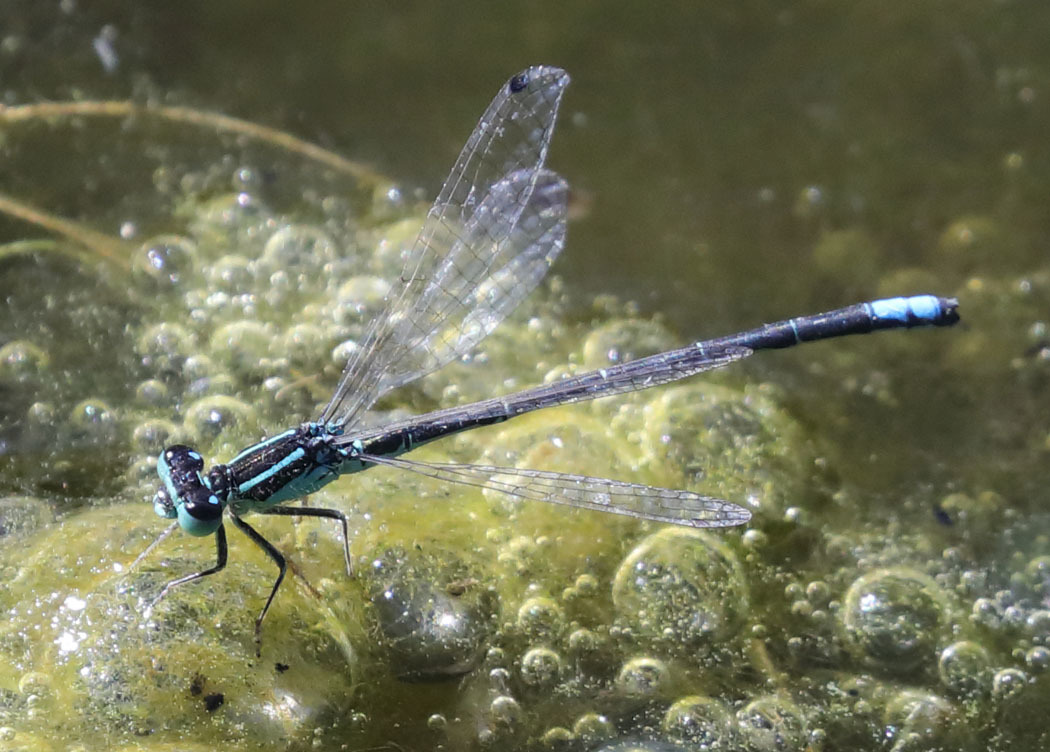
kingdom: Animalia
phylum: Arthropoda
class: Insecta
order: Odonata
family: Coenagrionidae
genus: Ischnura
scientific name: Ischnura perparva
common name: Western forktail
